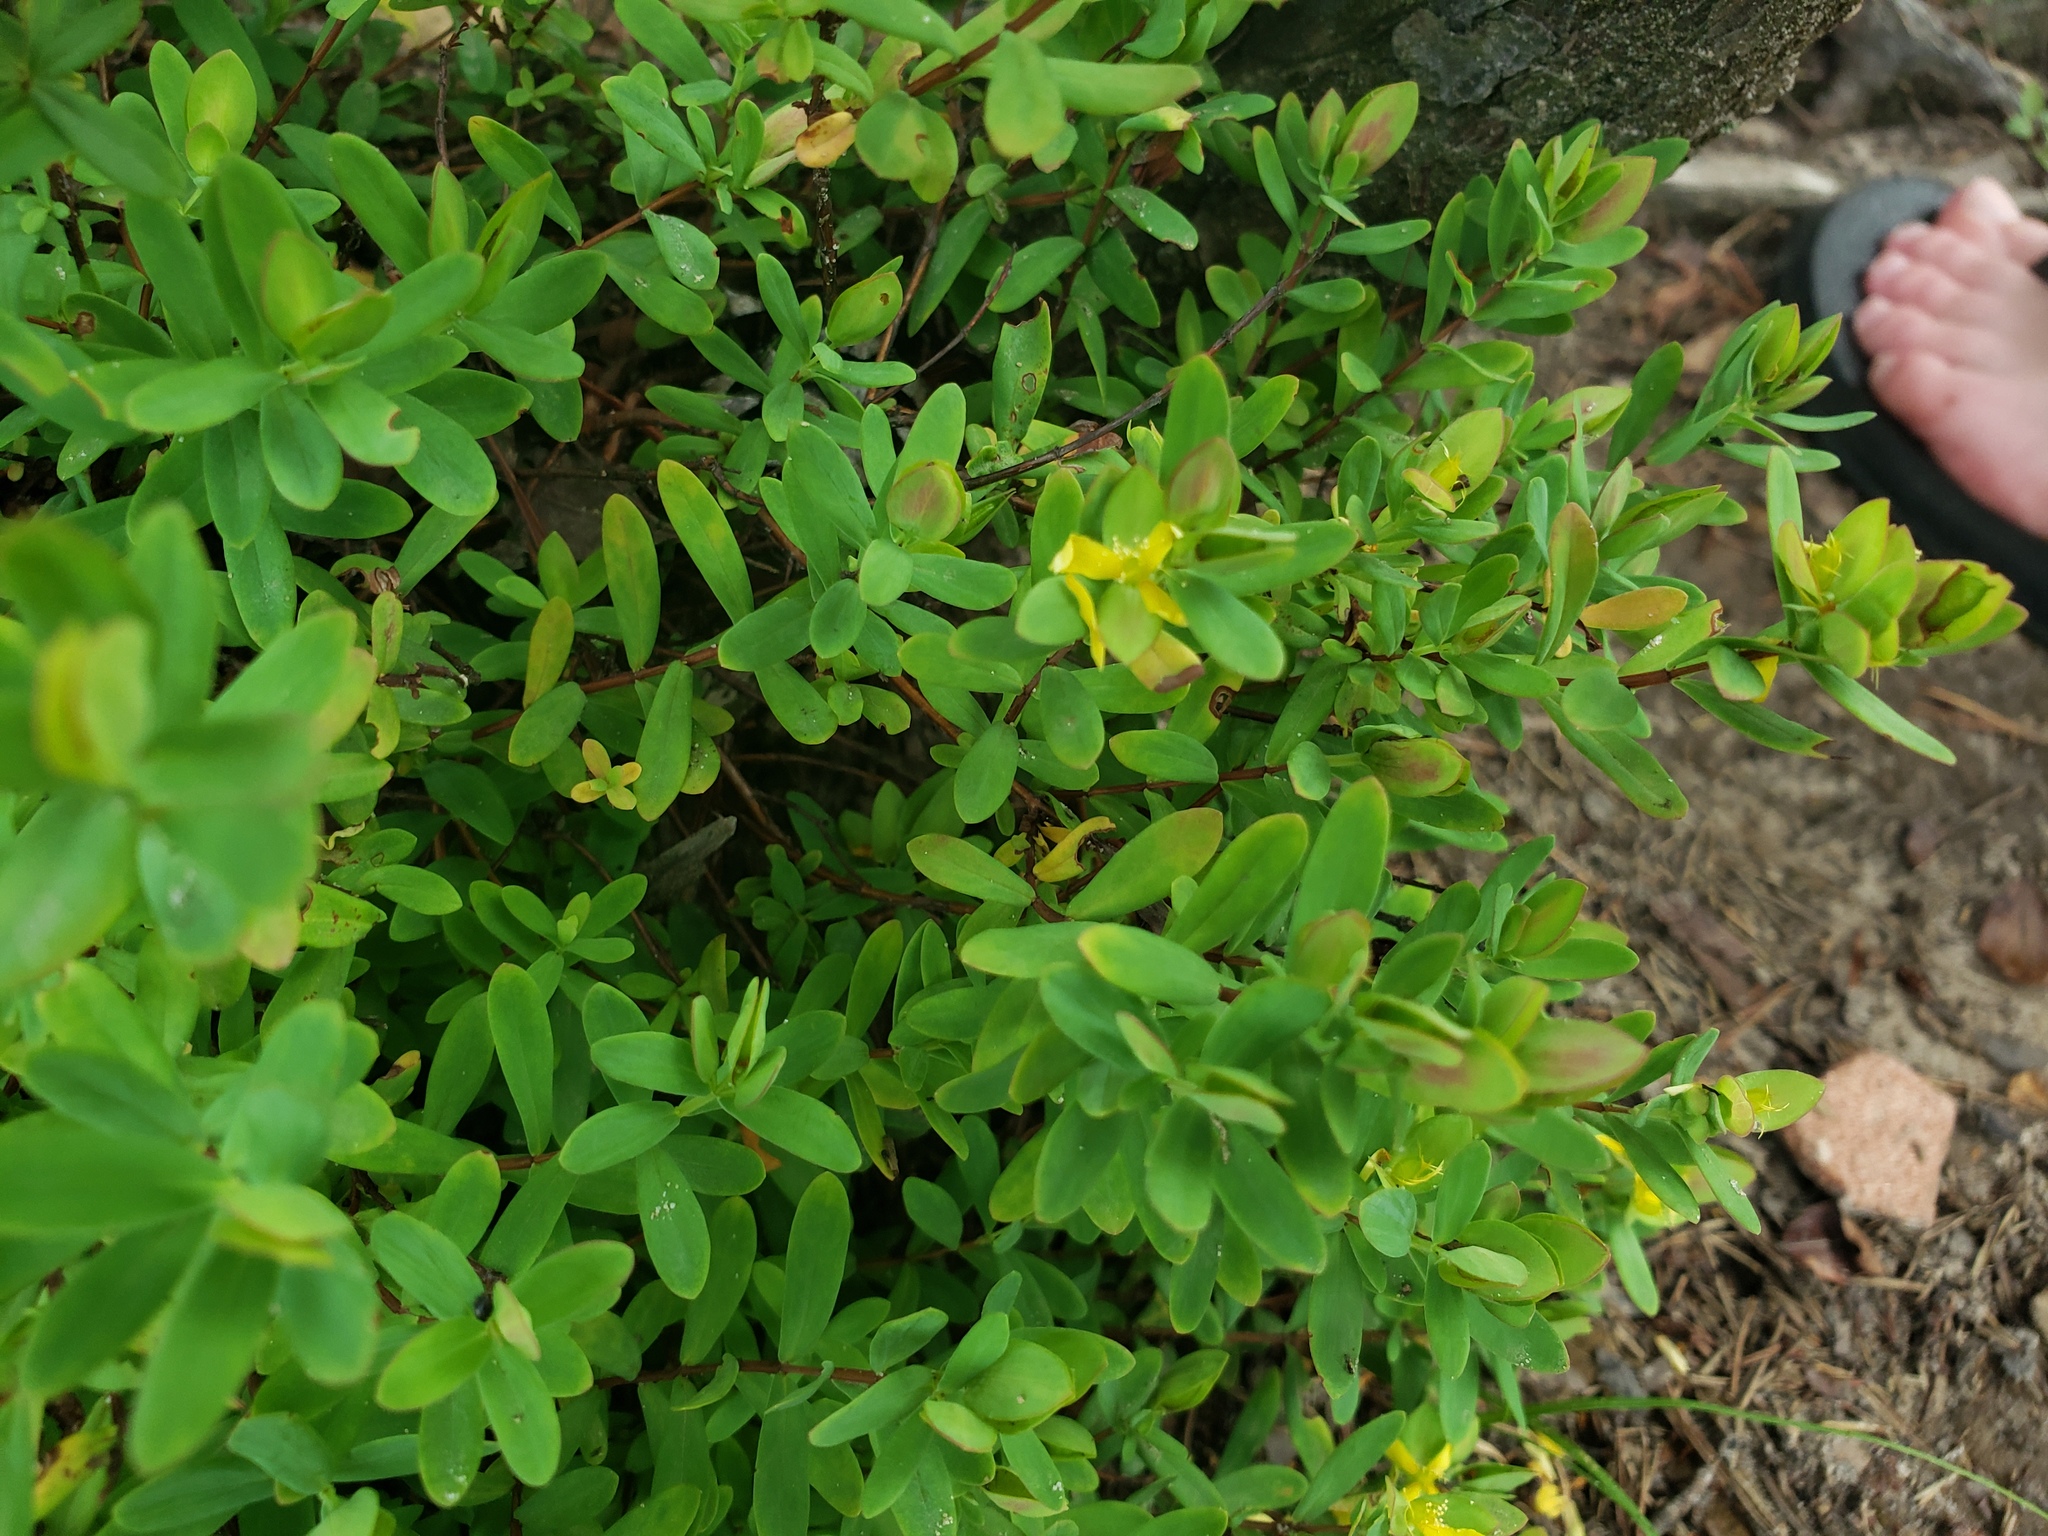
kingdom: Plantae
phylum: Tracheophyta
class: Magnoliopsida
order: Malpighiales
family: Hypericaceae
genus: Hypericum
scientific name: Hypericum hypericoides
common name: St. andrew's cross
